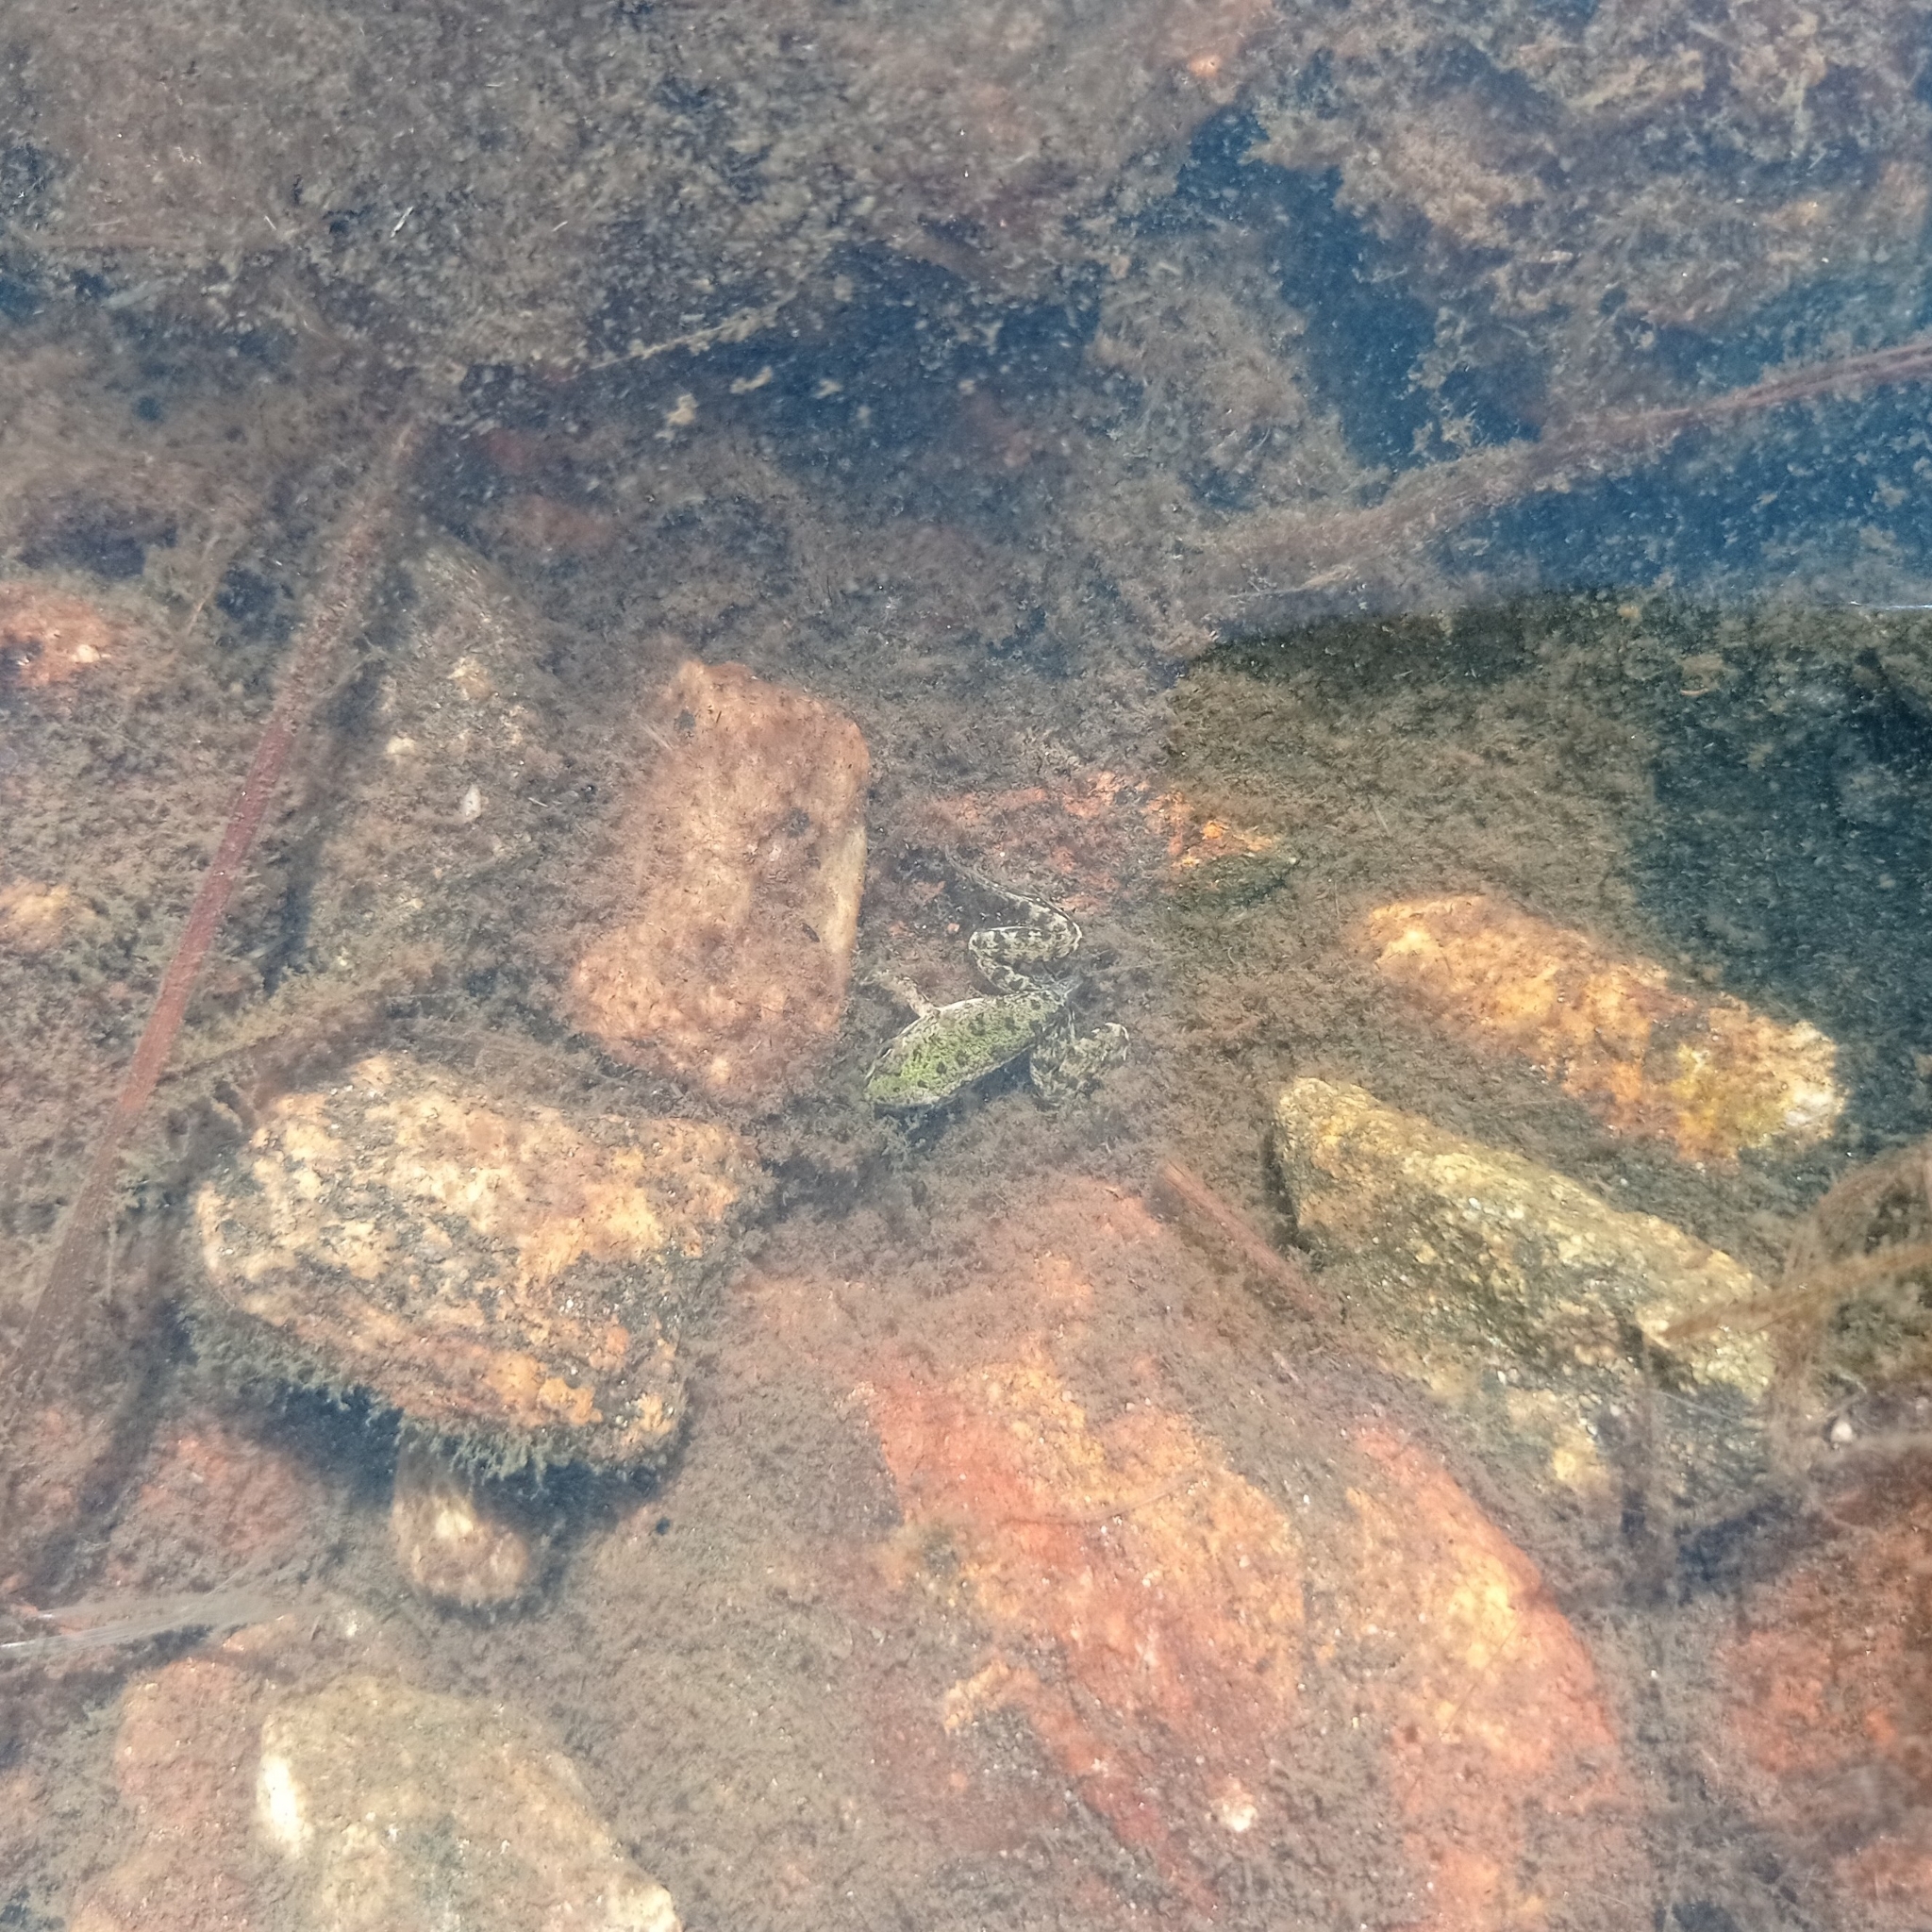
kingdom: Animalia
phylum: Chordata
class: Amphibia
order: Anura
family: Ranidae
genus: Pelophylax
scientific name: Pelophylax perezi
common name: Perez's frog
